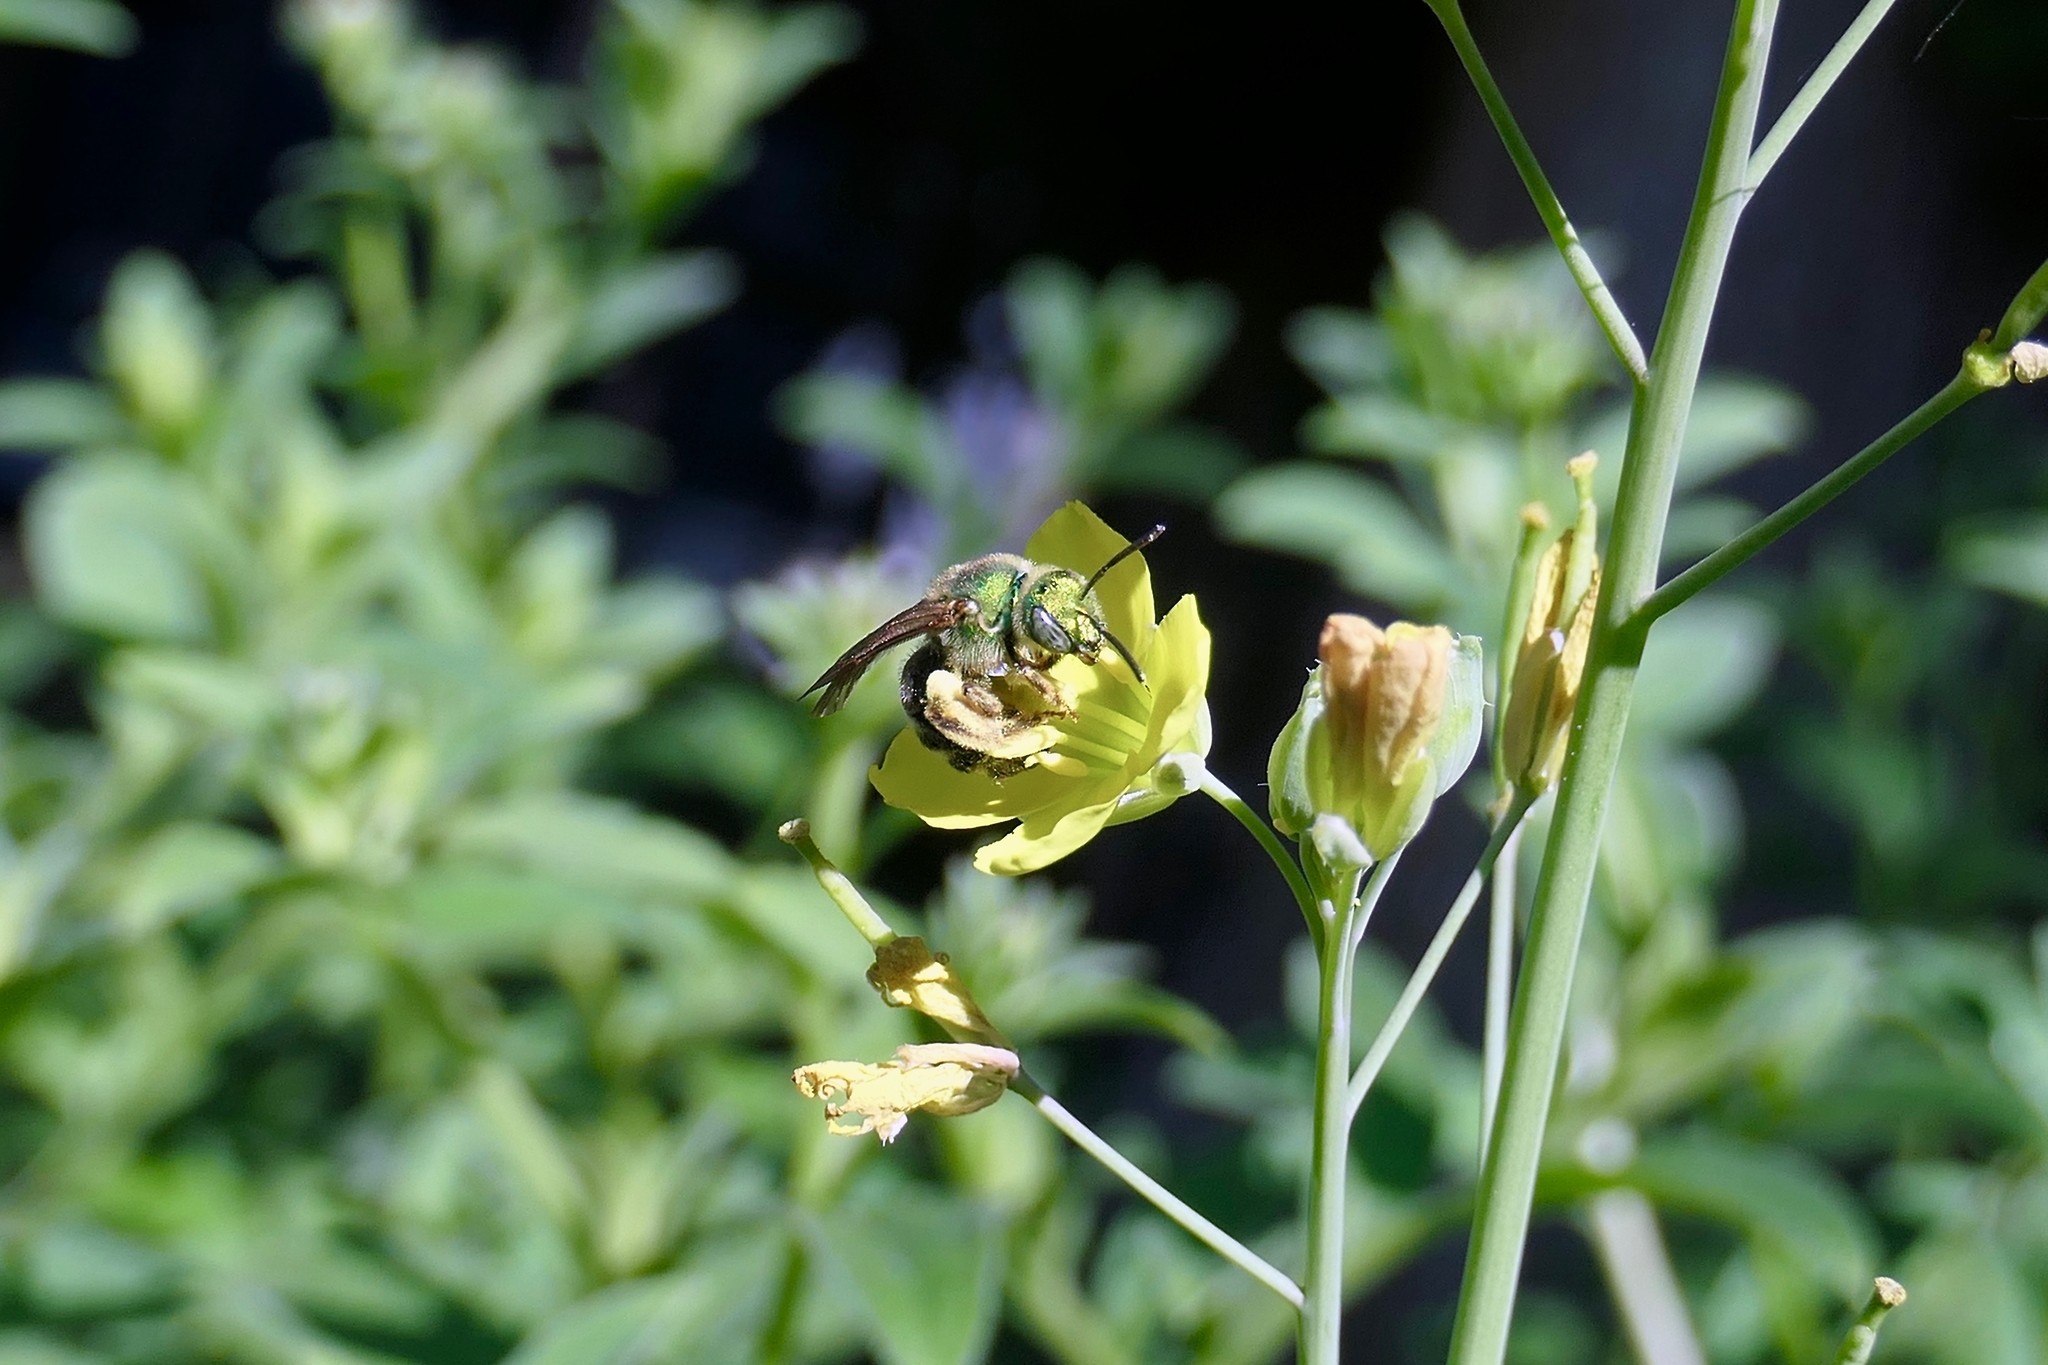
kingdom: Animalia
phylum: Arthropoda
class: Insecta
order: Hymenoptera
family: Halictidae
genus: Agapostemon
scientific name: Agapostemon virescens
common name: Bicolored striped sweat bee
